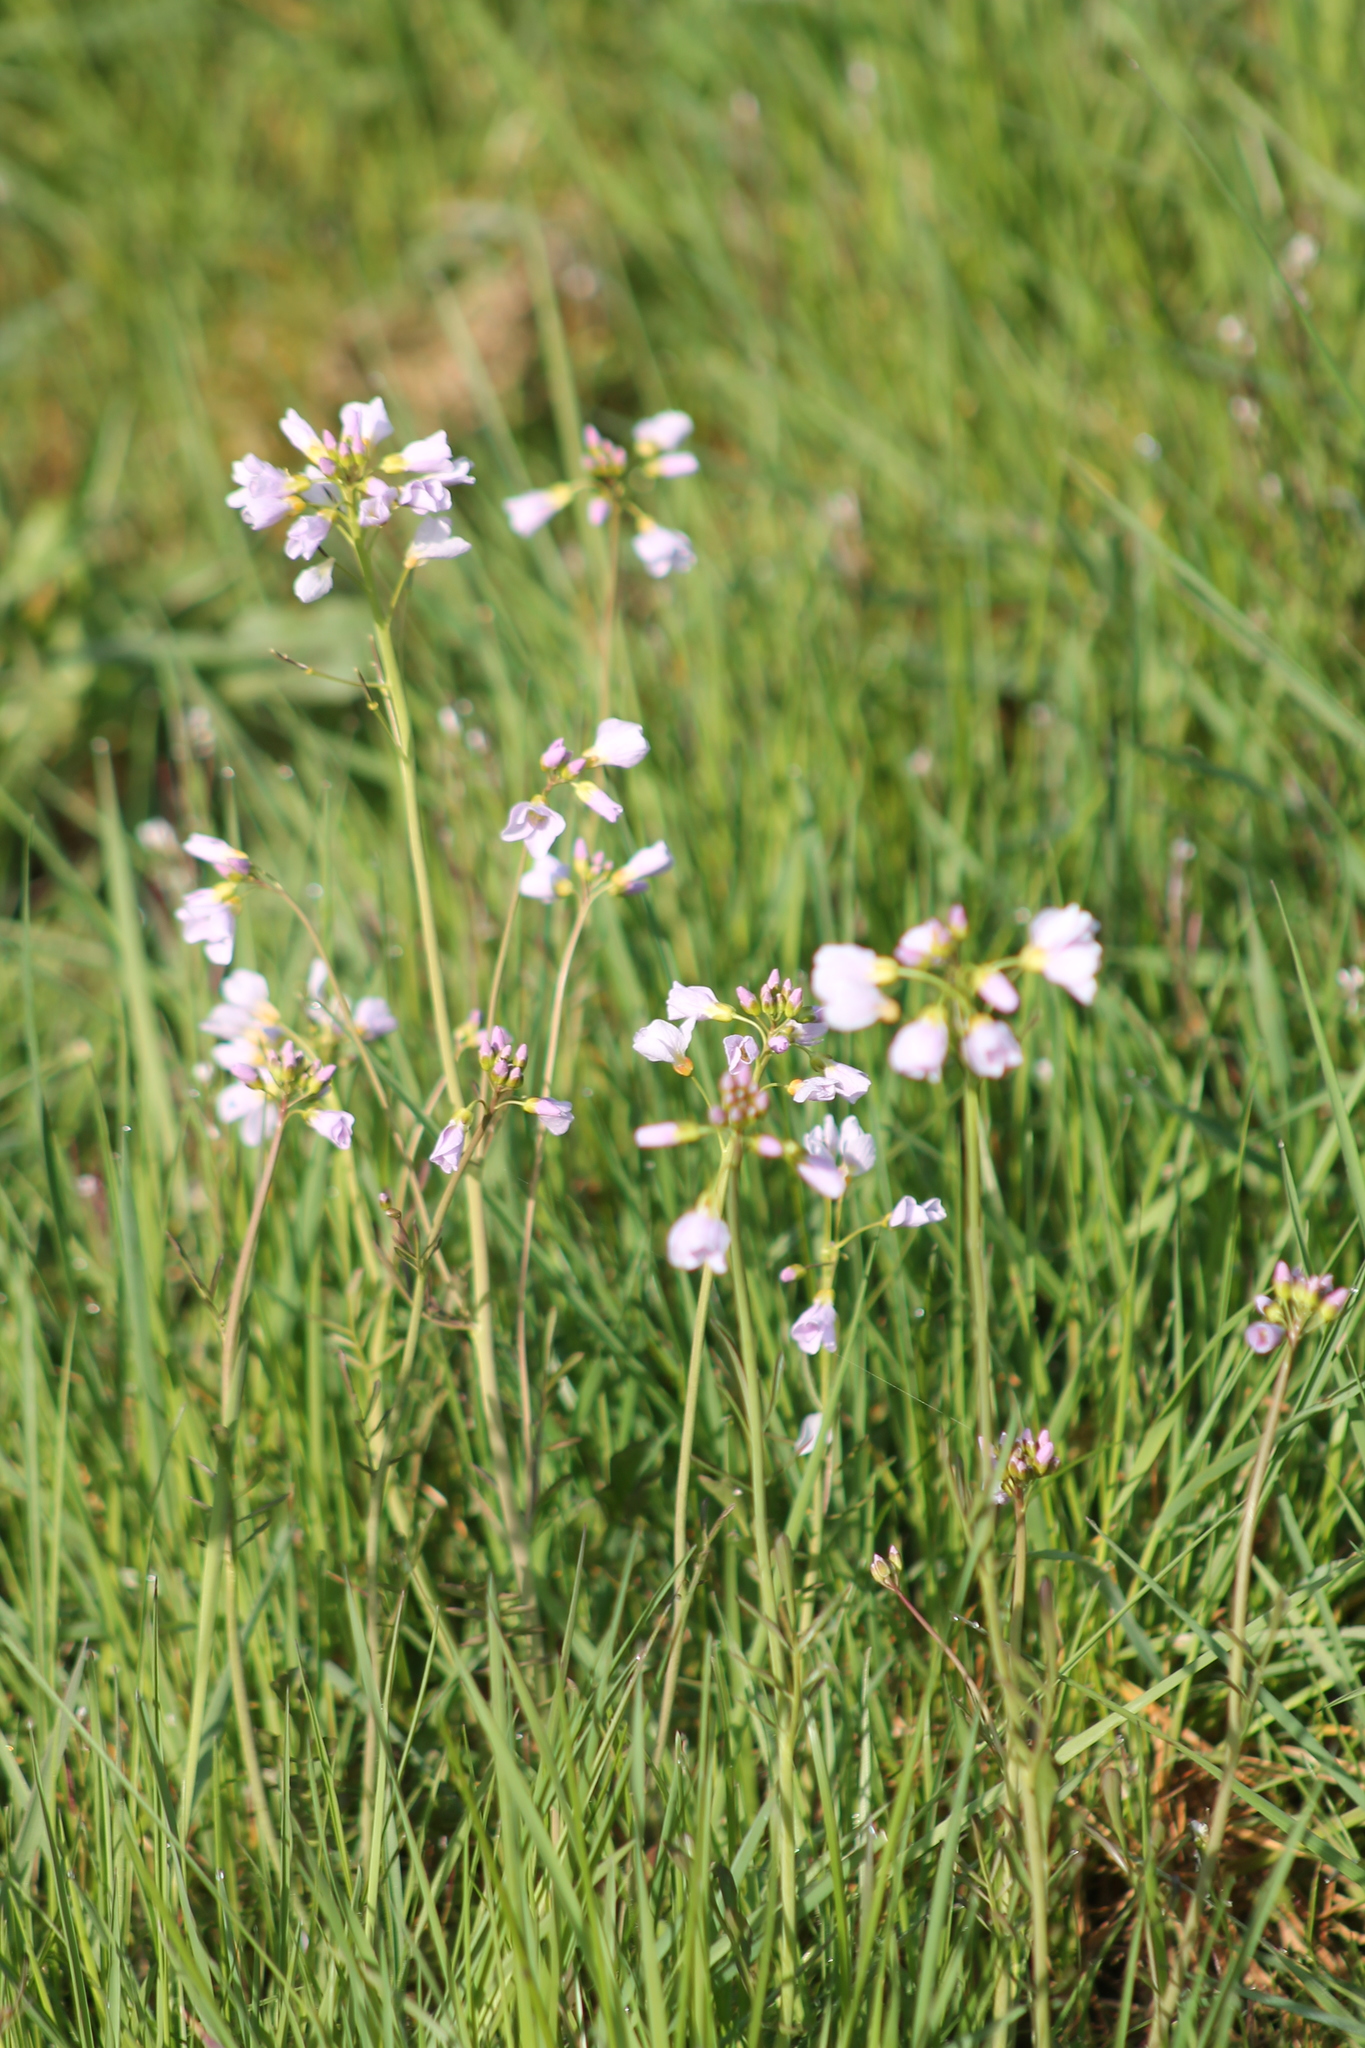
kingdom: Plantae
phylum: Tracheophyta
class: Magnoliopsida
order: Brassicales
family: Brassicaceae
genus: Cardamine
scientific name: Cardamine pratensis
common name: Cuckoo flower
